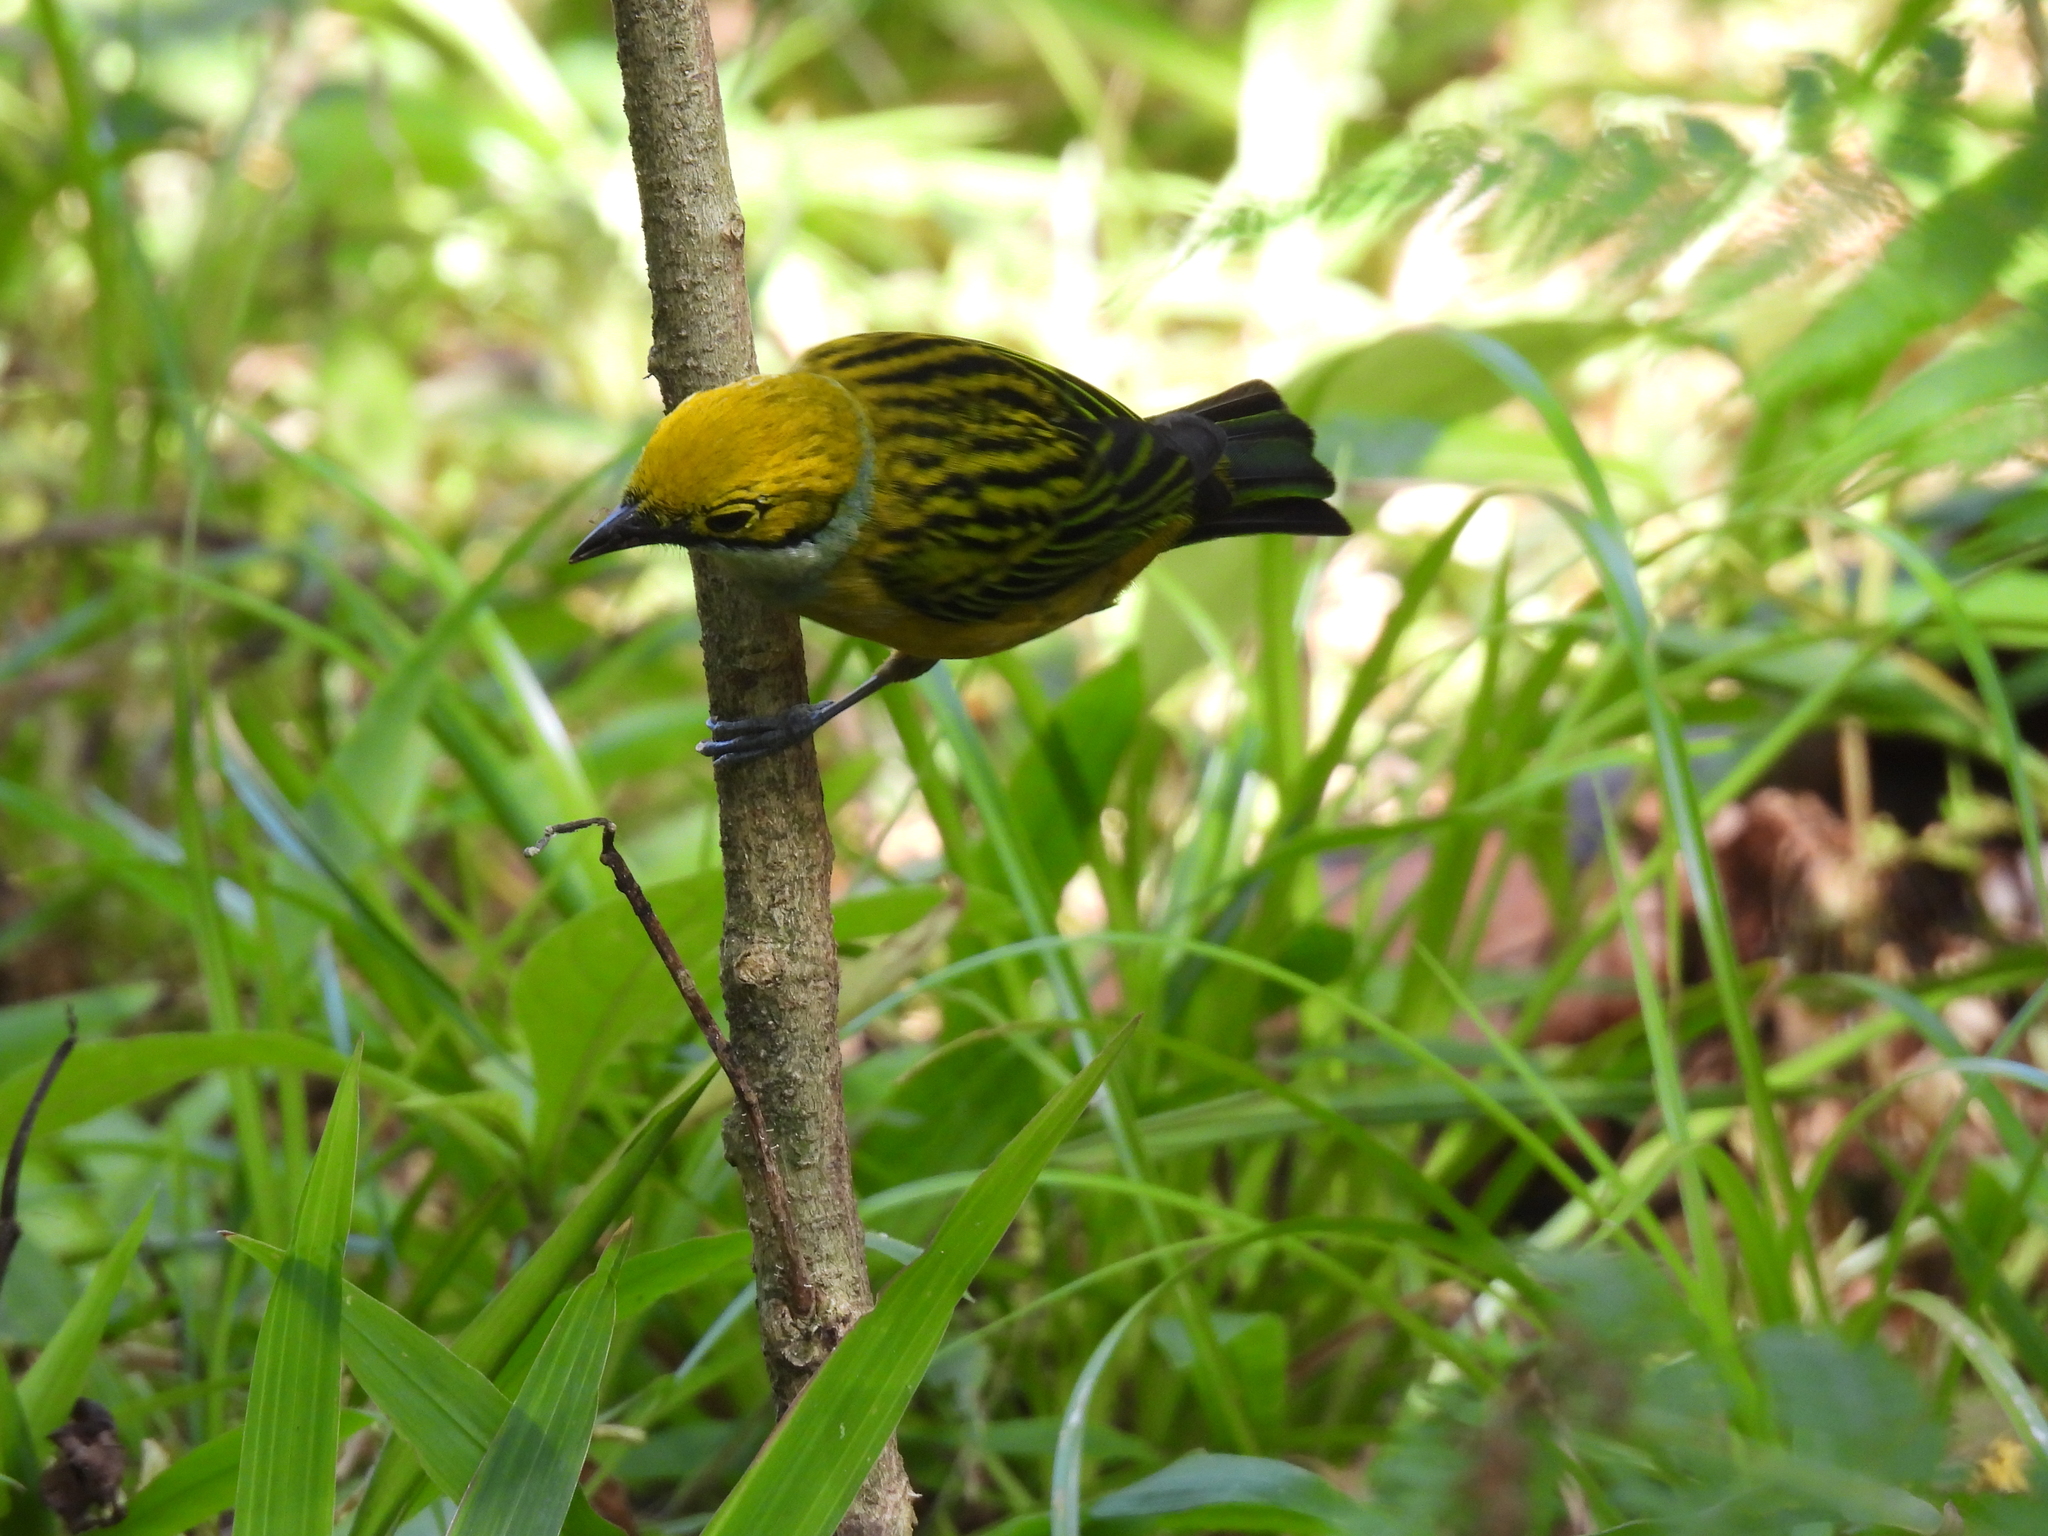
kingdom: Animalia
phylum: Chordata
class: Aves
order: Passeriformes
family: Thraupidae
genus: Tangara
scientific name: Tangara icterocephala
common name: Silver-throated tanager
